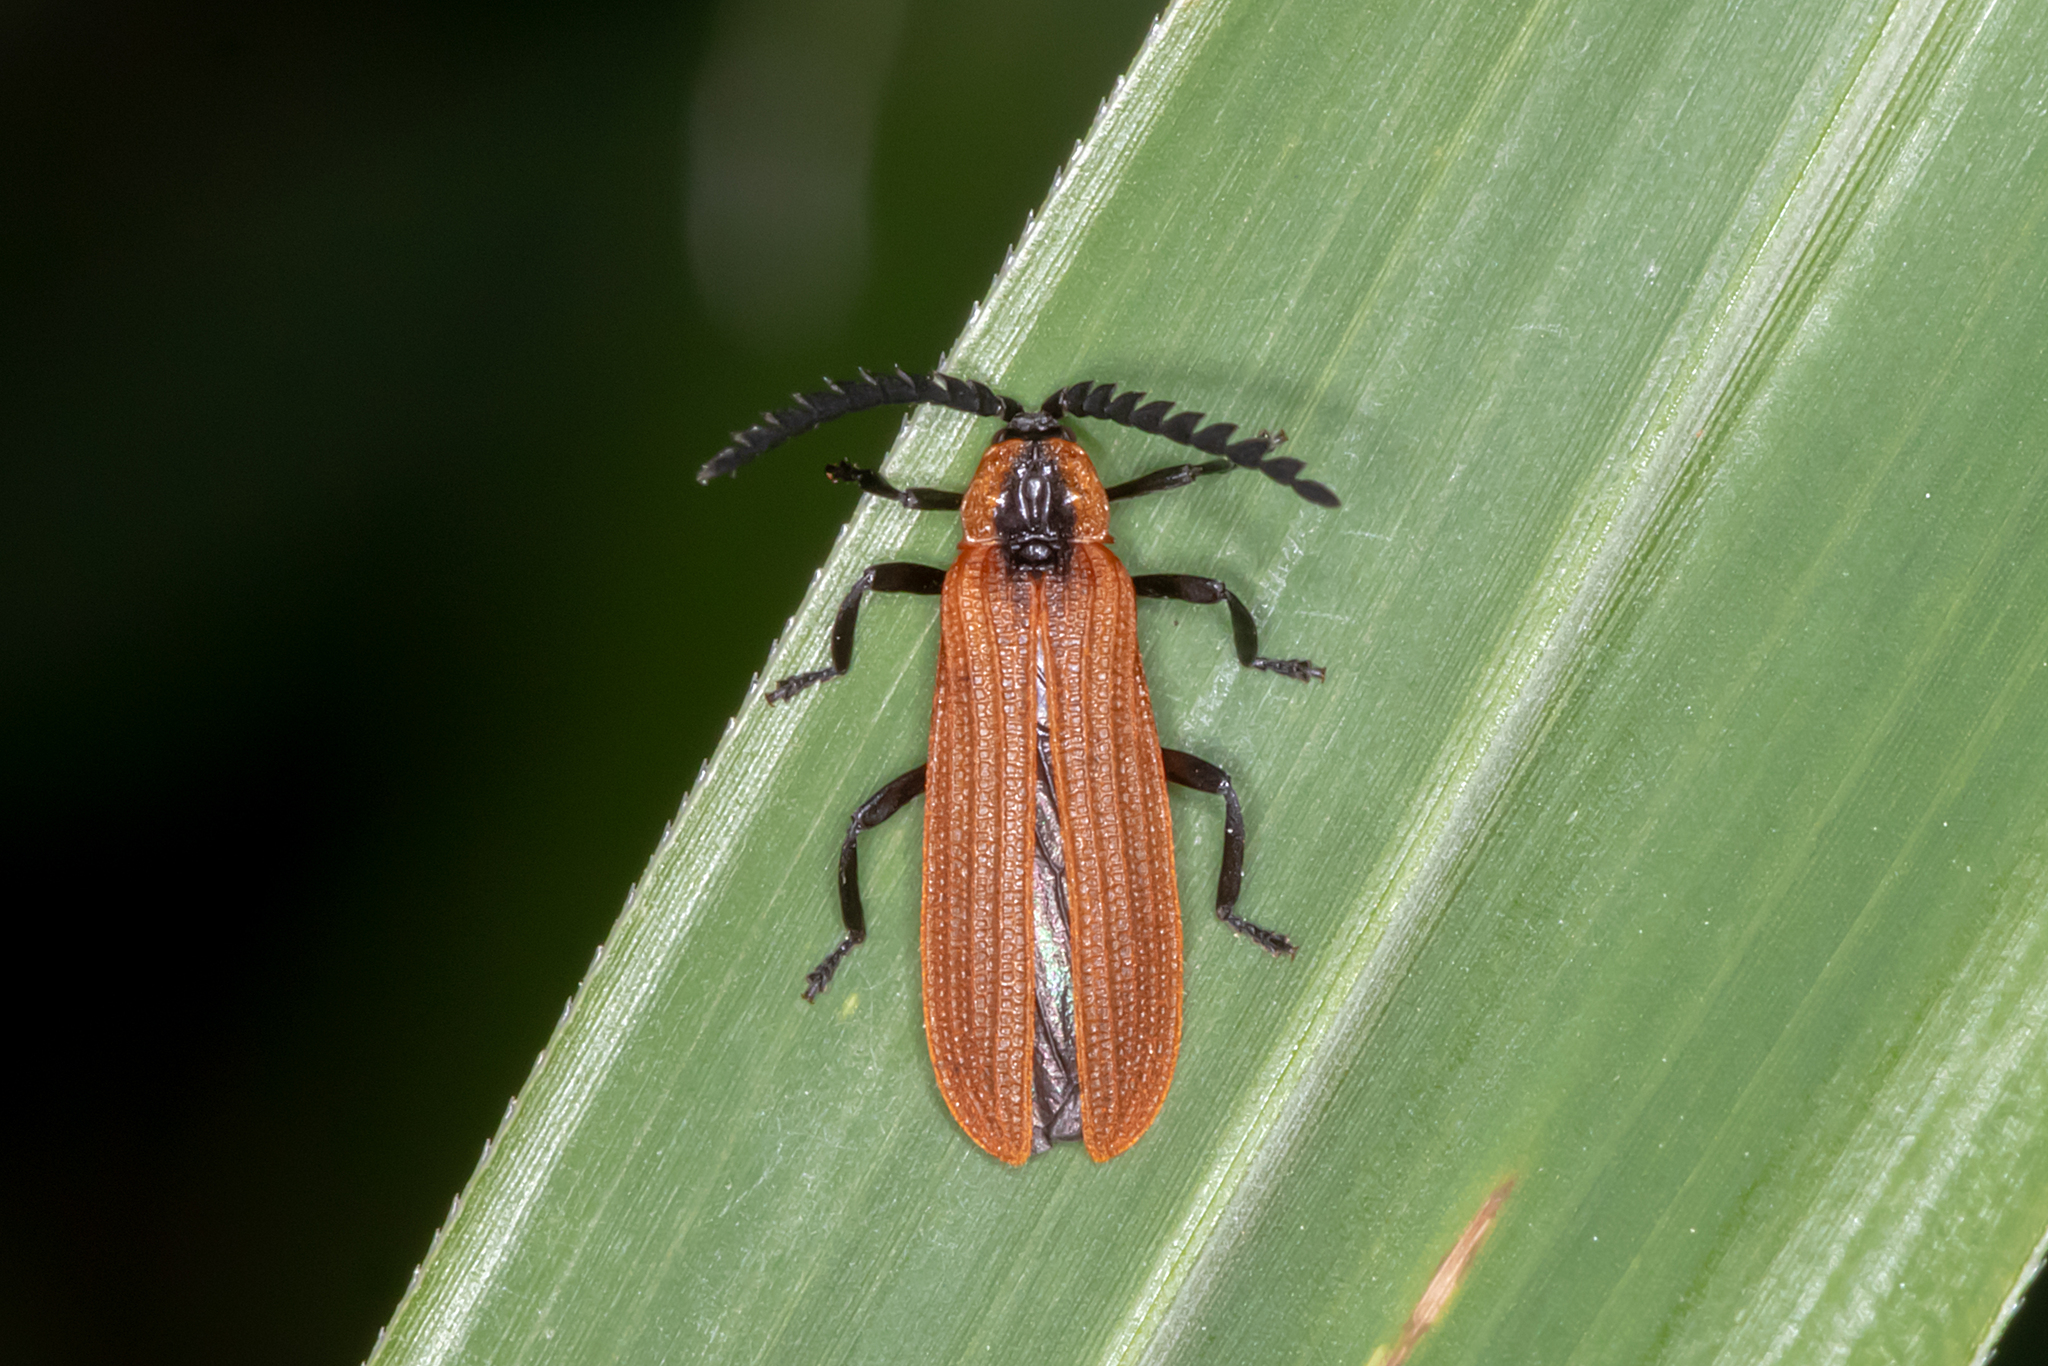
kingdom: Animalia
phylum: Arthropoda
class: Insecta
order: Coleoptera
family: Lycidae
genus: Trichalus
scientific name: Trichalus
